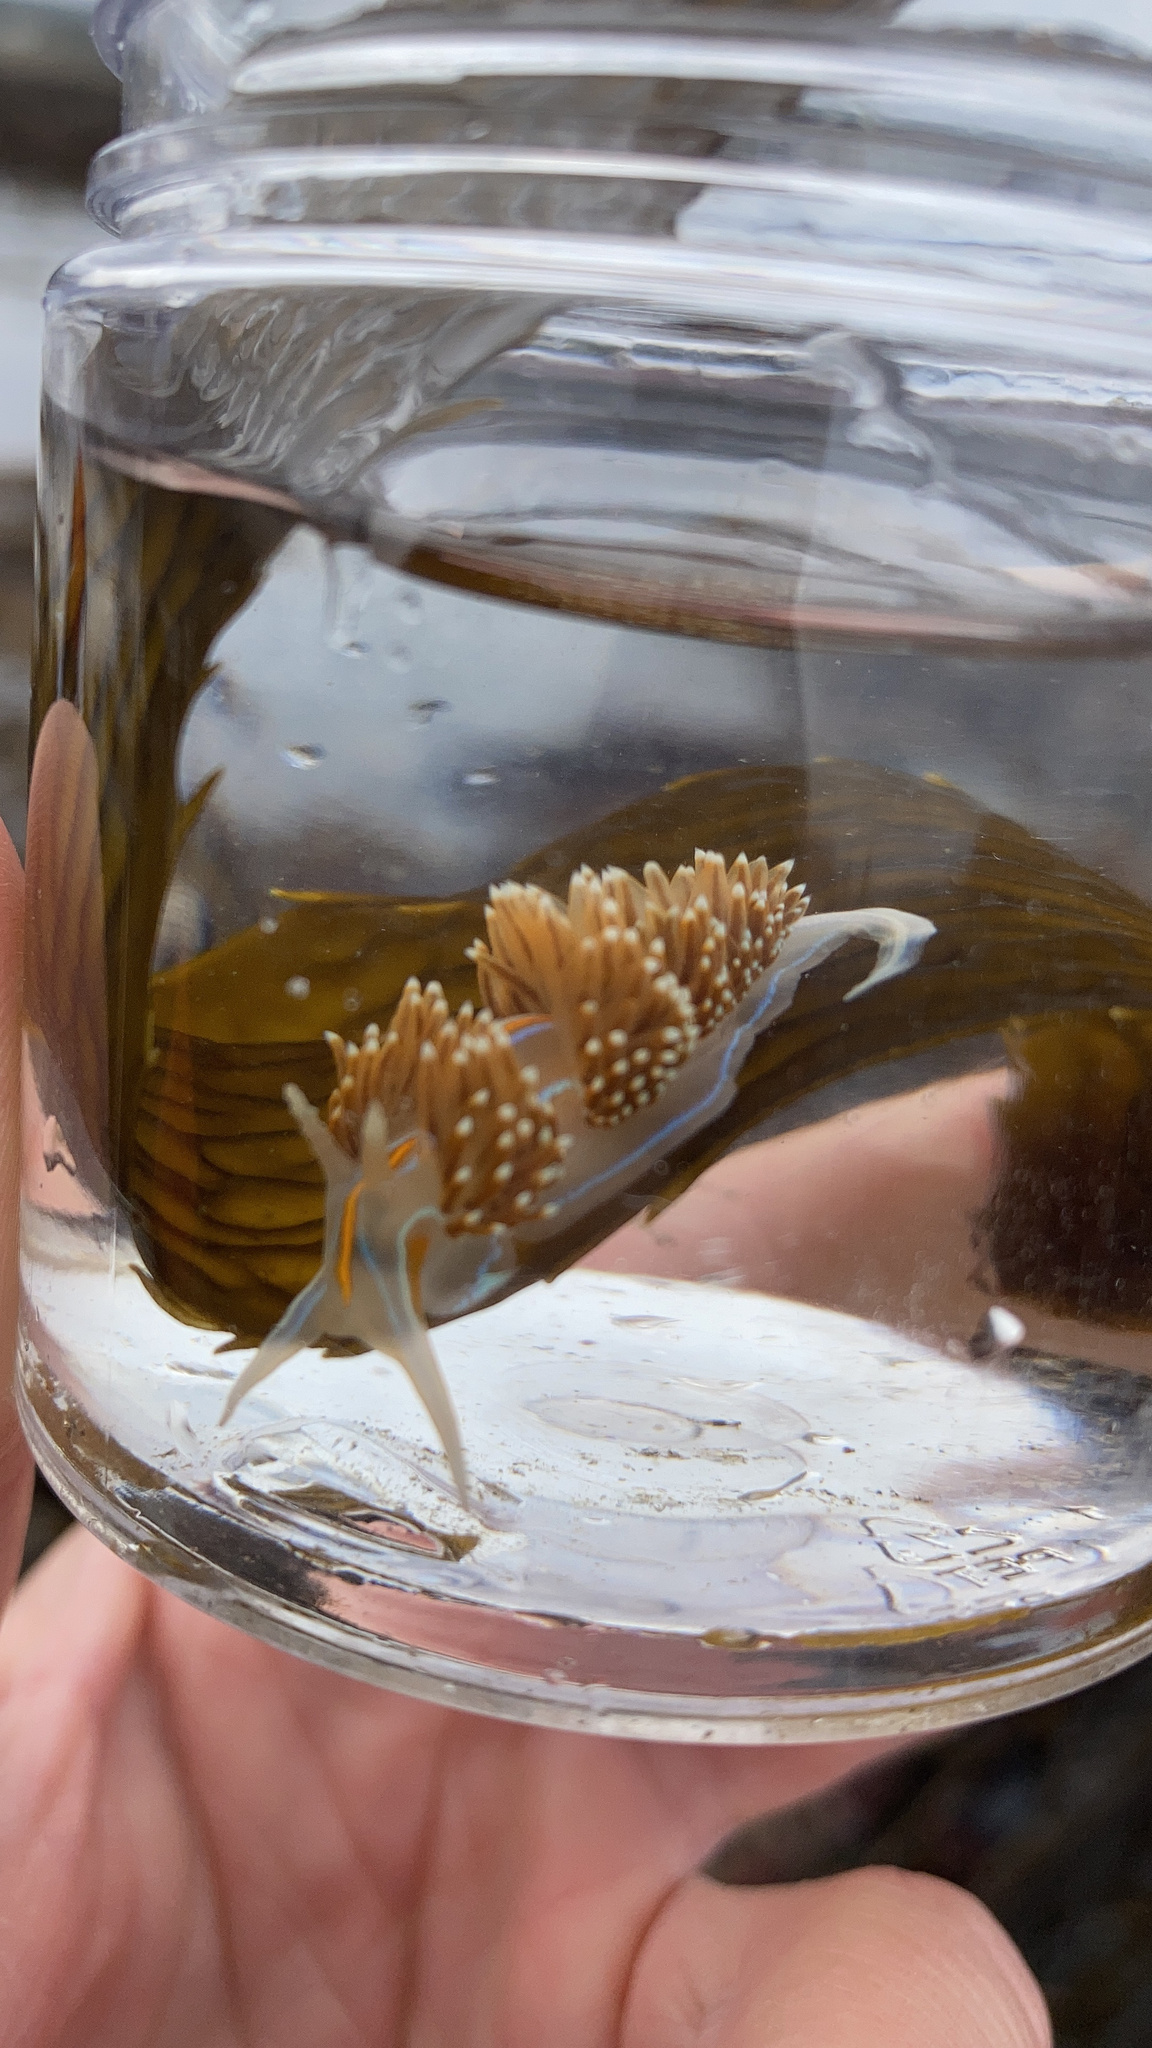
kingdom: Animalia
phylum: Mollusca
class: Gastropoda
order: Nudibranchia
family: Myrrhinidae
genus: Hermissenda
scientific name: Hermissenda opalescens
